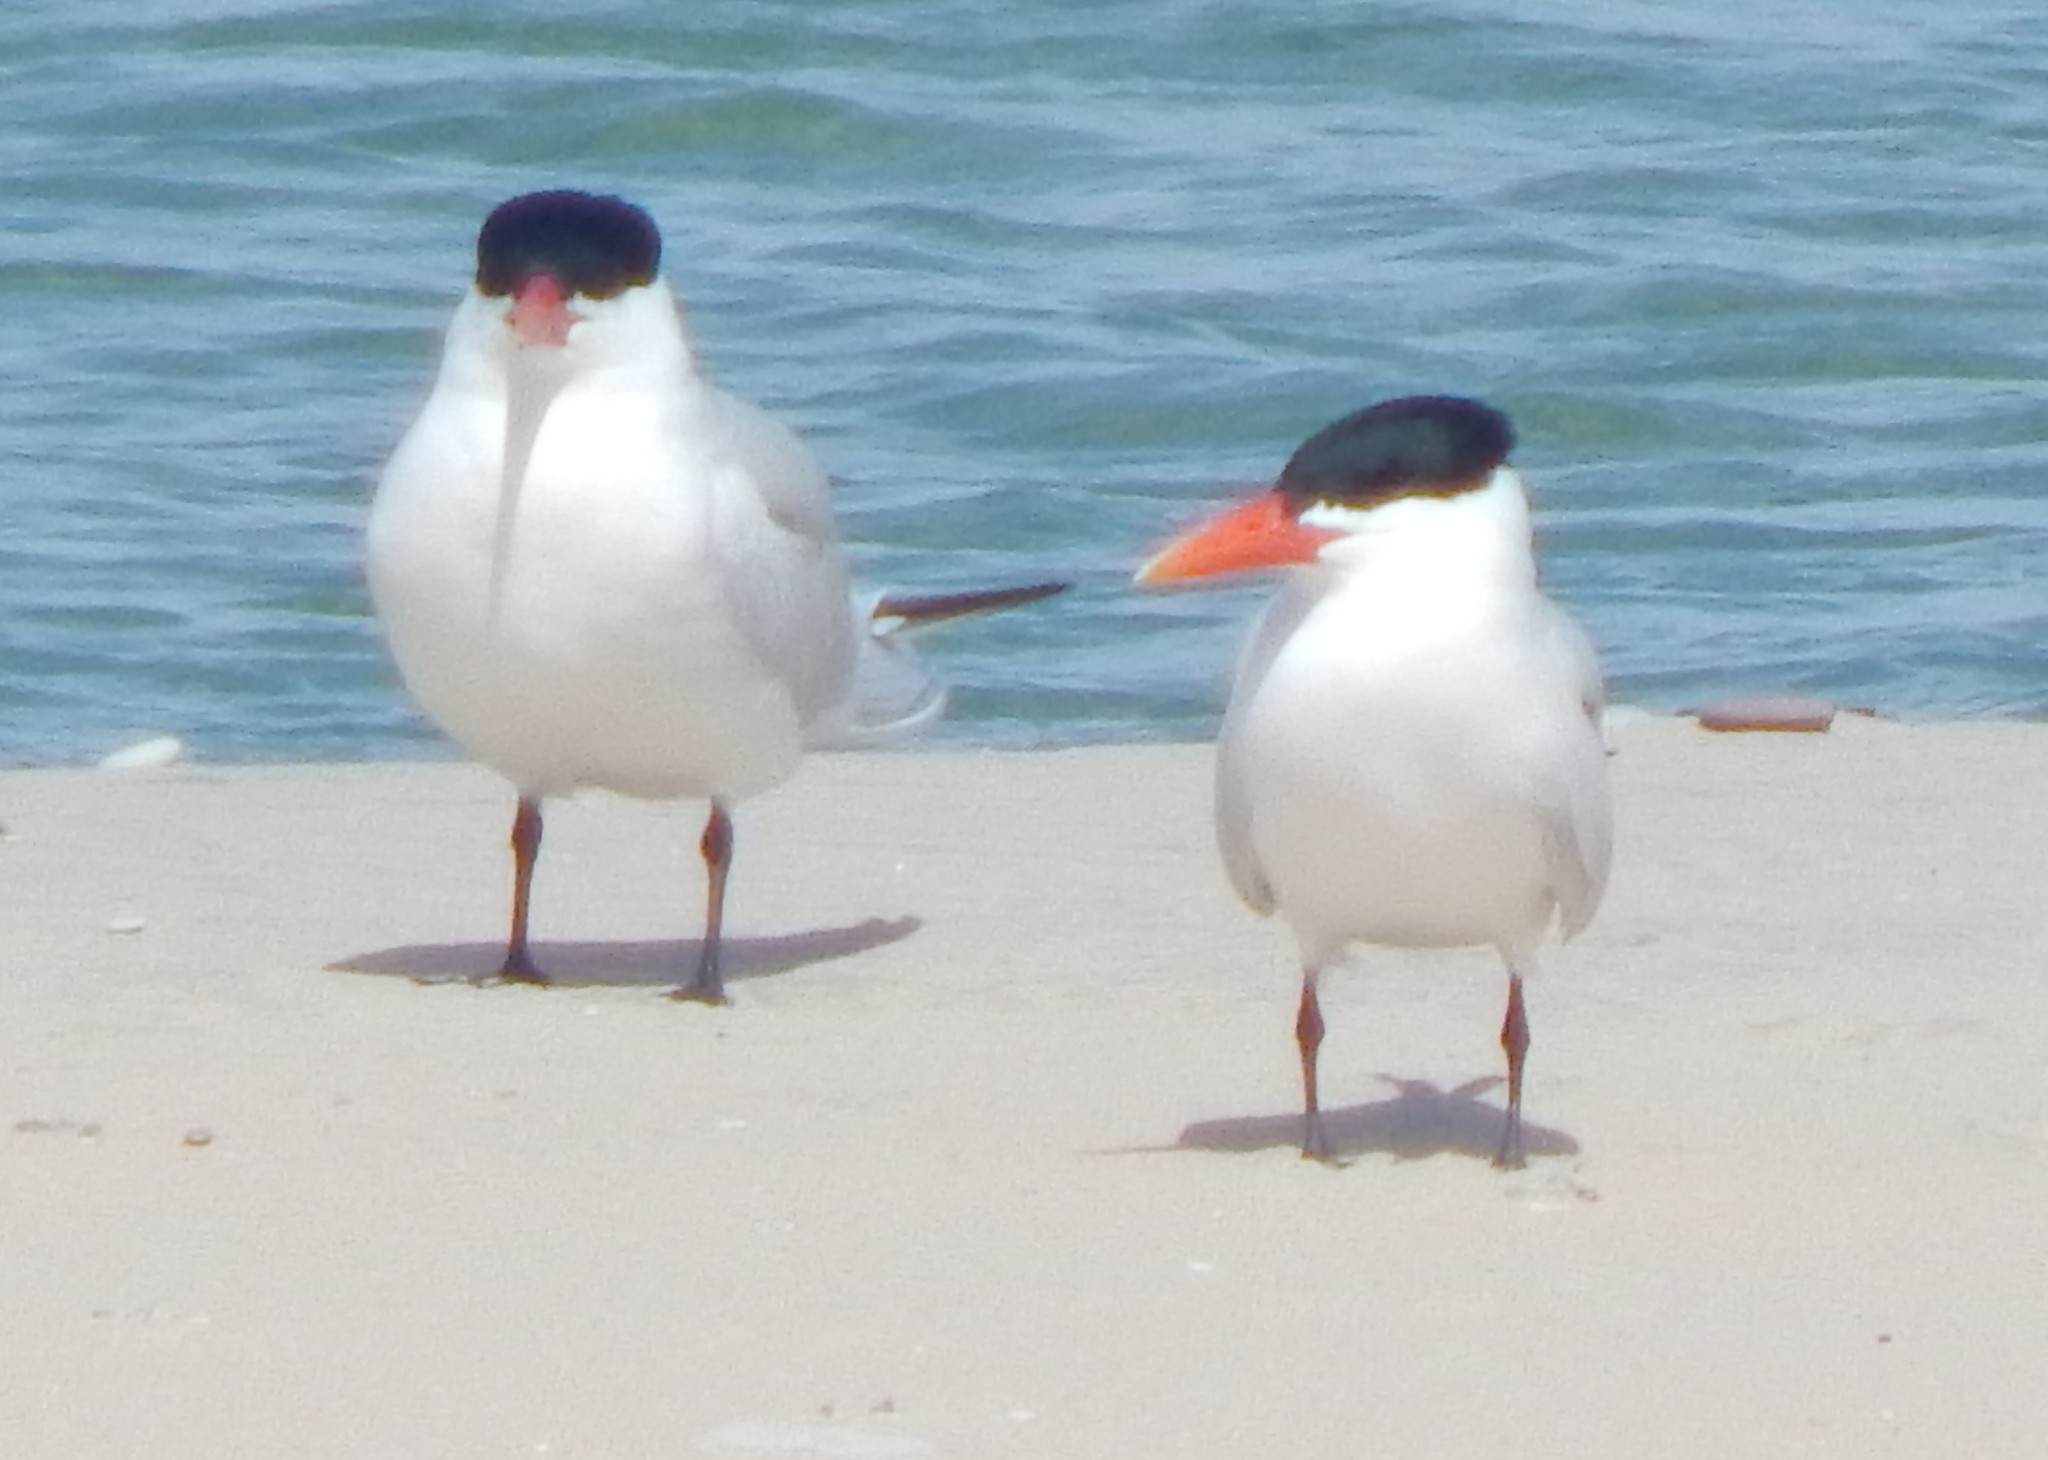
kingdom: Animalia
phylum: Chordata
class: Aves
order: Charadriiformes
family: Laridae
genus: Hydroprogne
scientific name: Hydroprogne caspia
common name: Caspian tern
